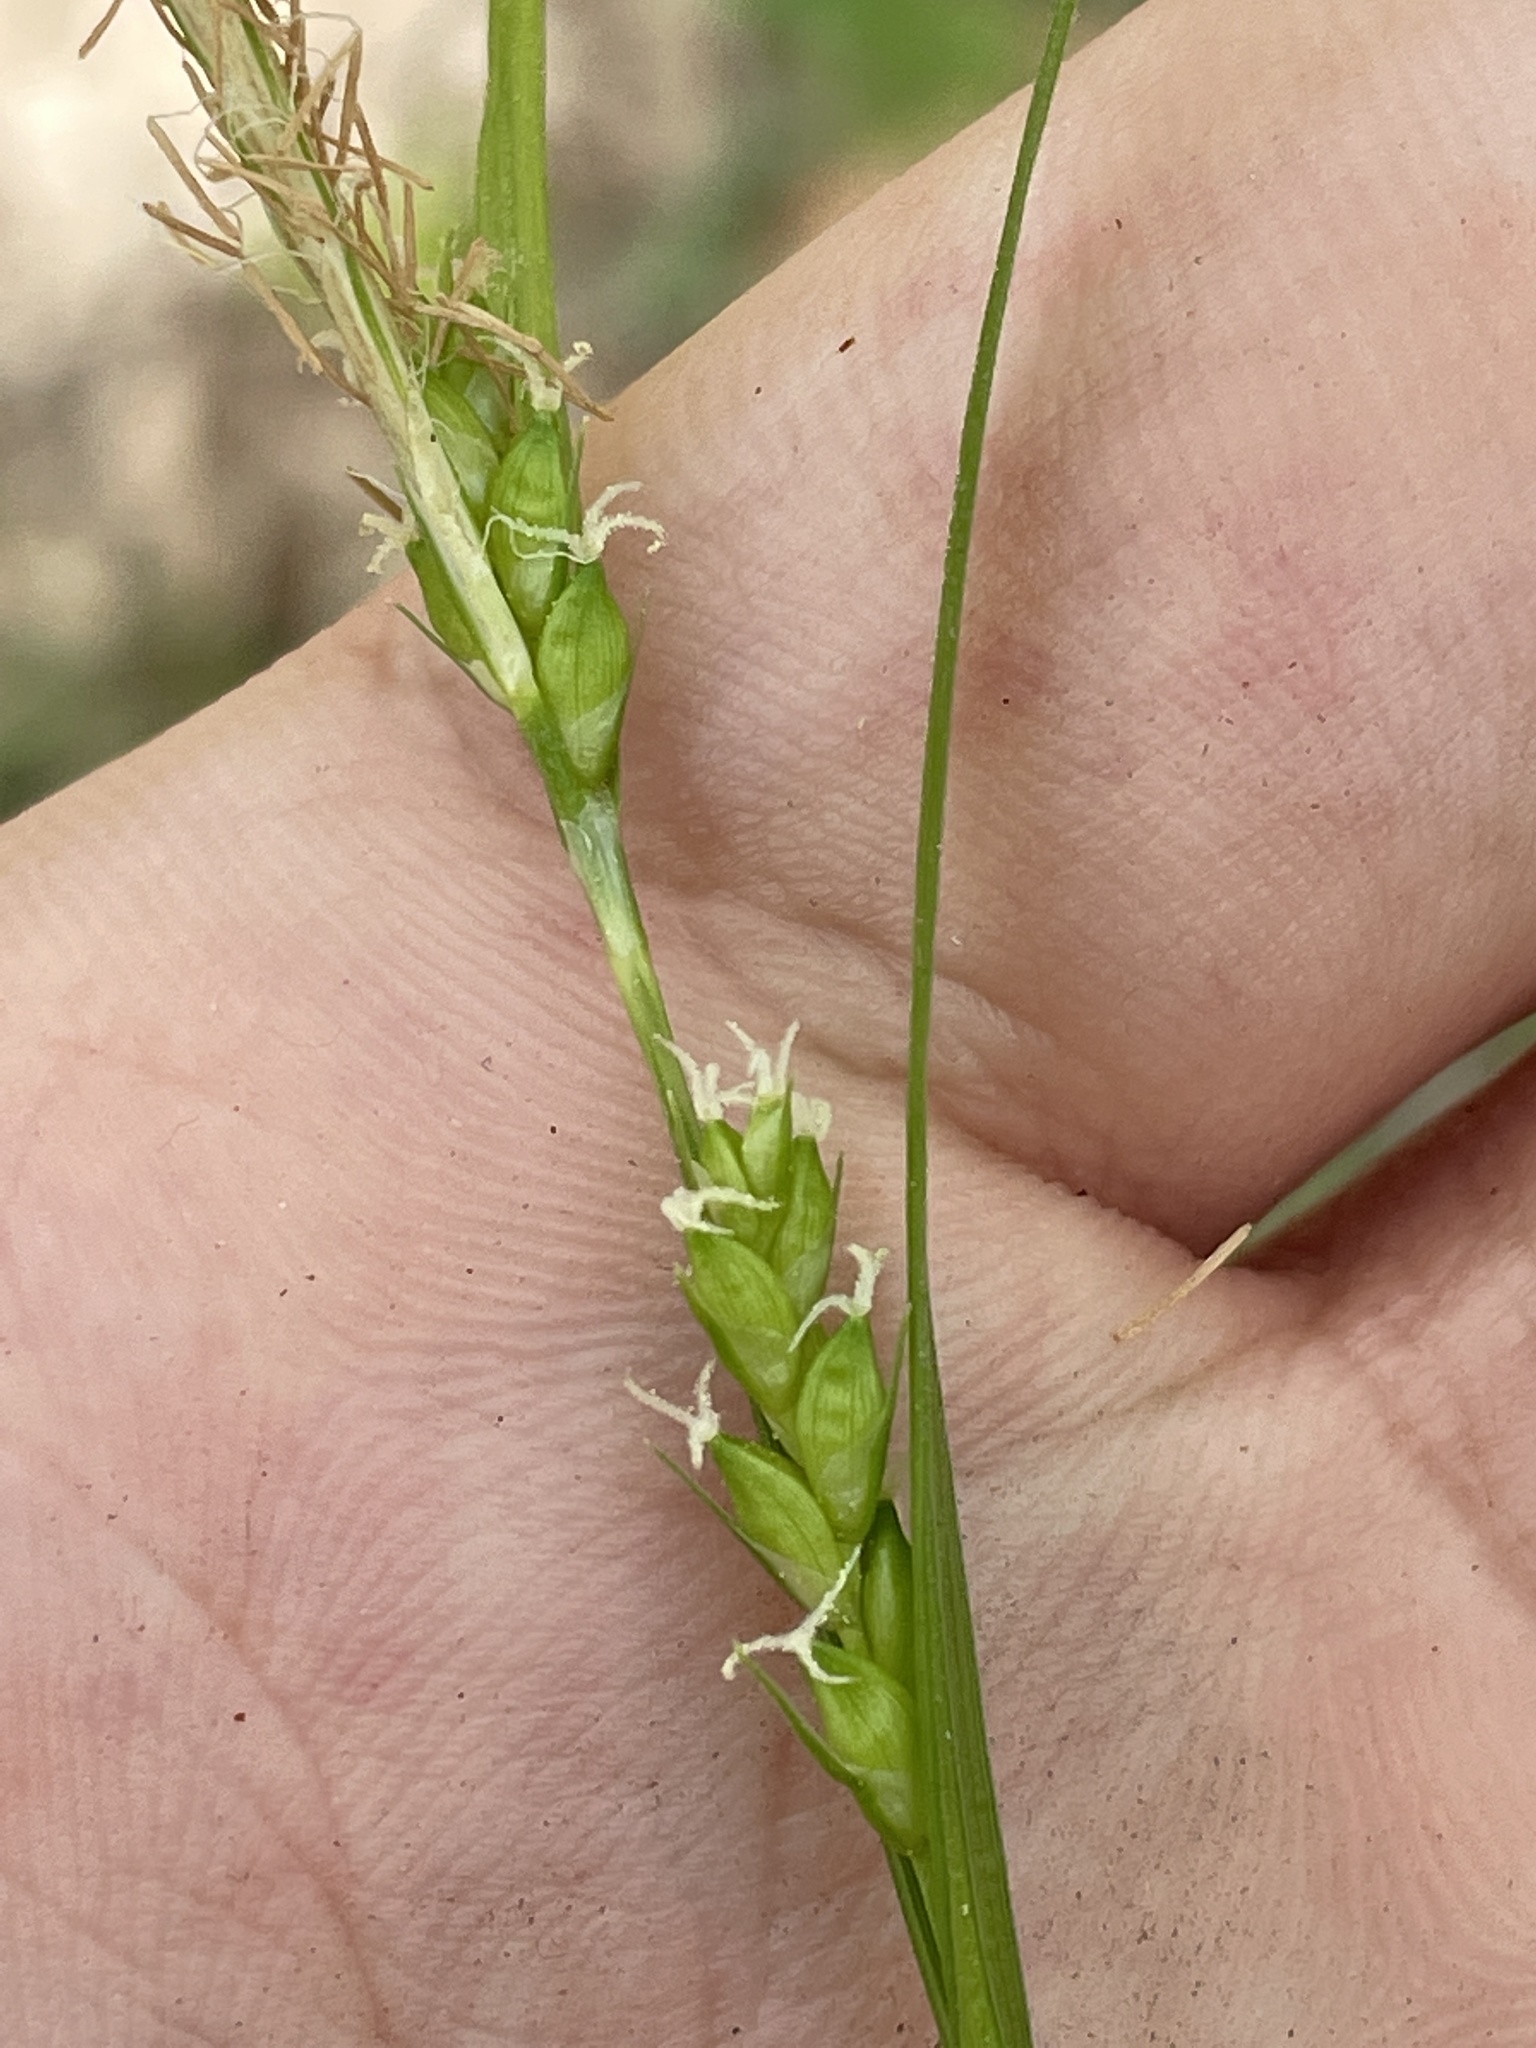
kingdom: Plantae
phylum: Tracheophyta
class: Liliopsida
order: Poales
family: Cyperaceae
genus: Carex
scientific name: Carex amphibola
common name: Amphibious sedge
